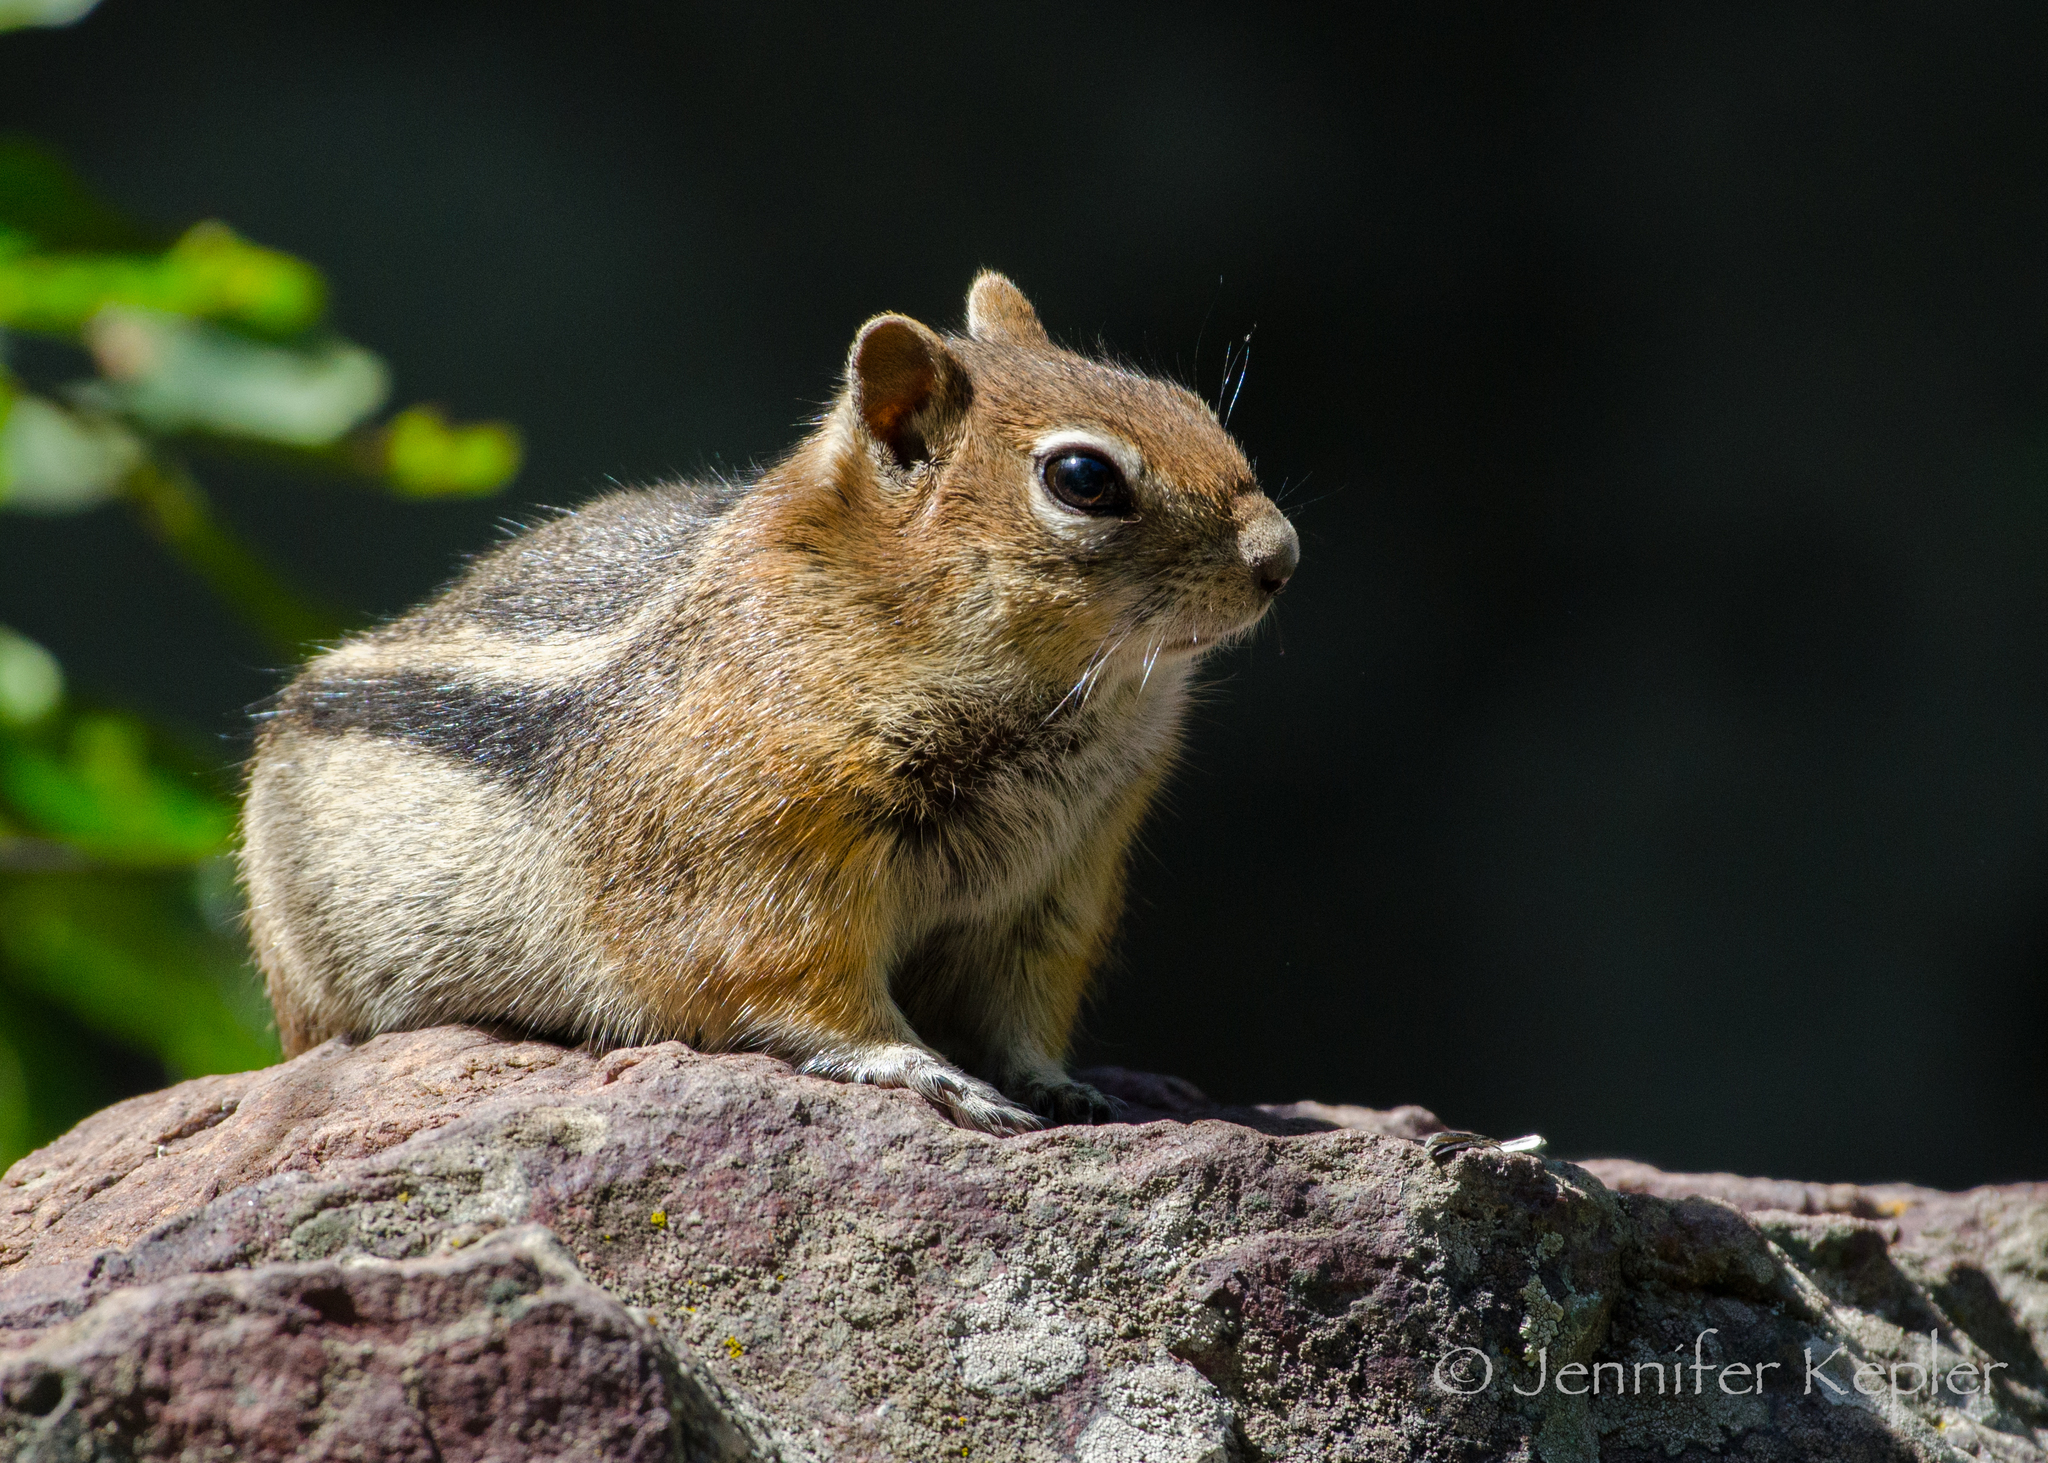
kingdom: Animalia
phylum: Chordata
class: Mammalia
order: Rodentia
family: Sciuridae
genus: Callospermophilus
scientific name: Callospermophilus lateralis
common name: Golden-mantled ground squirrel
